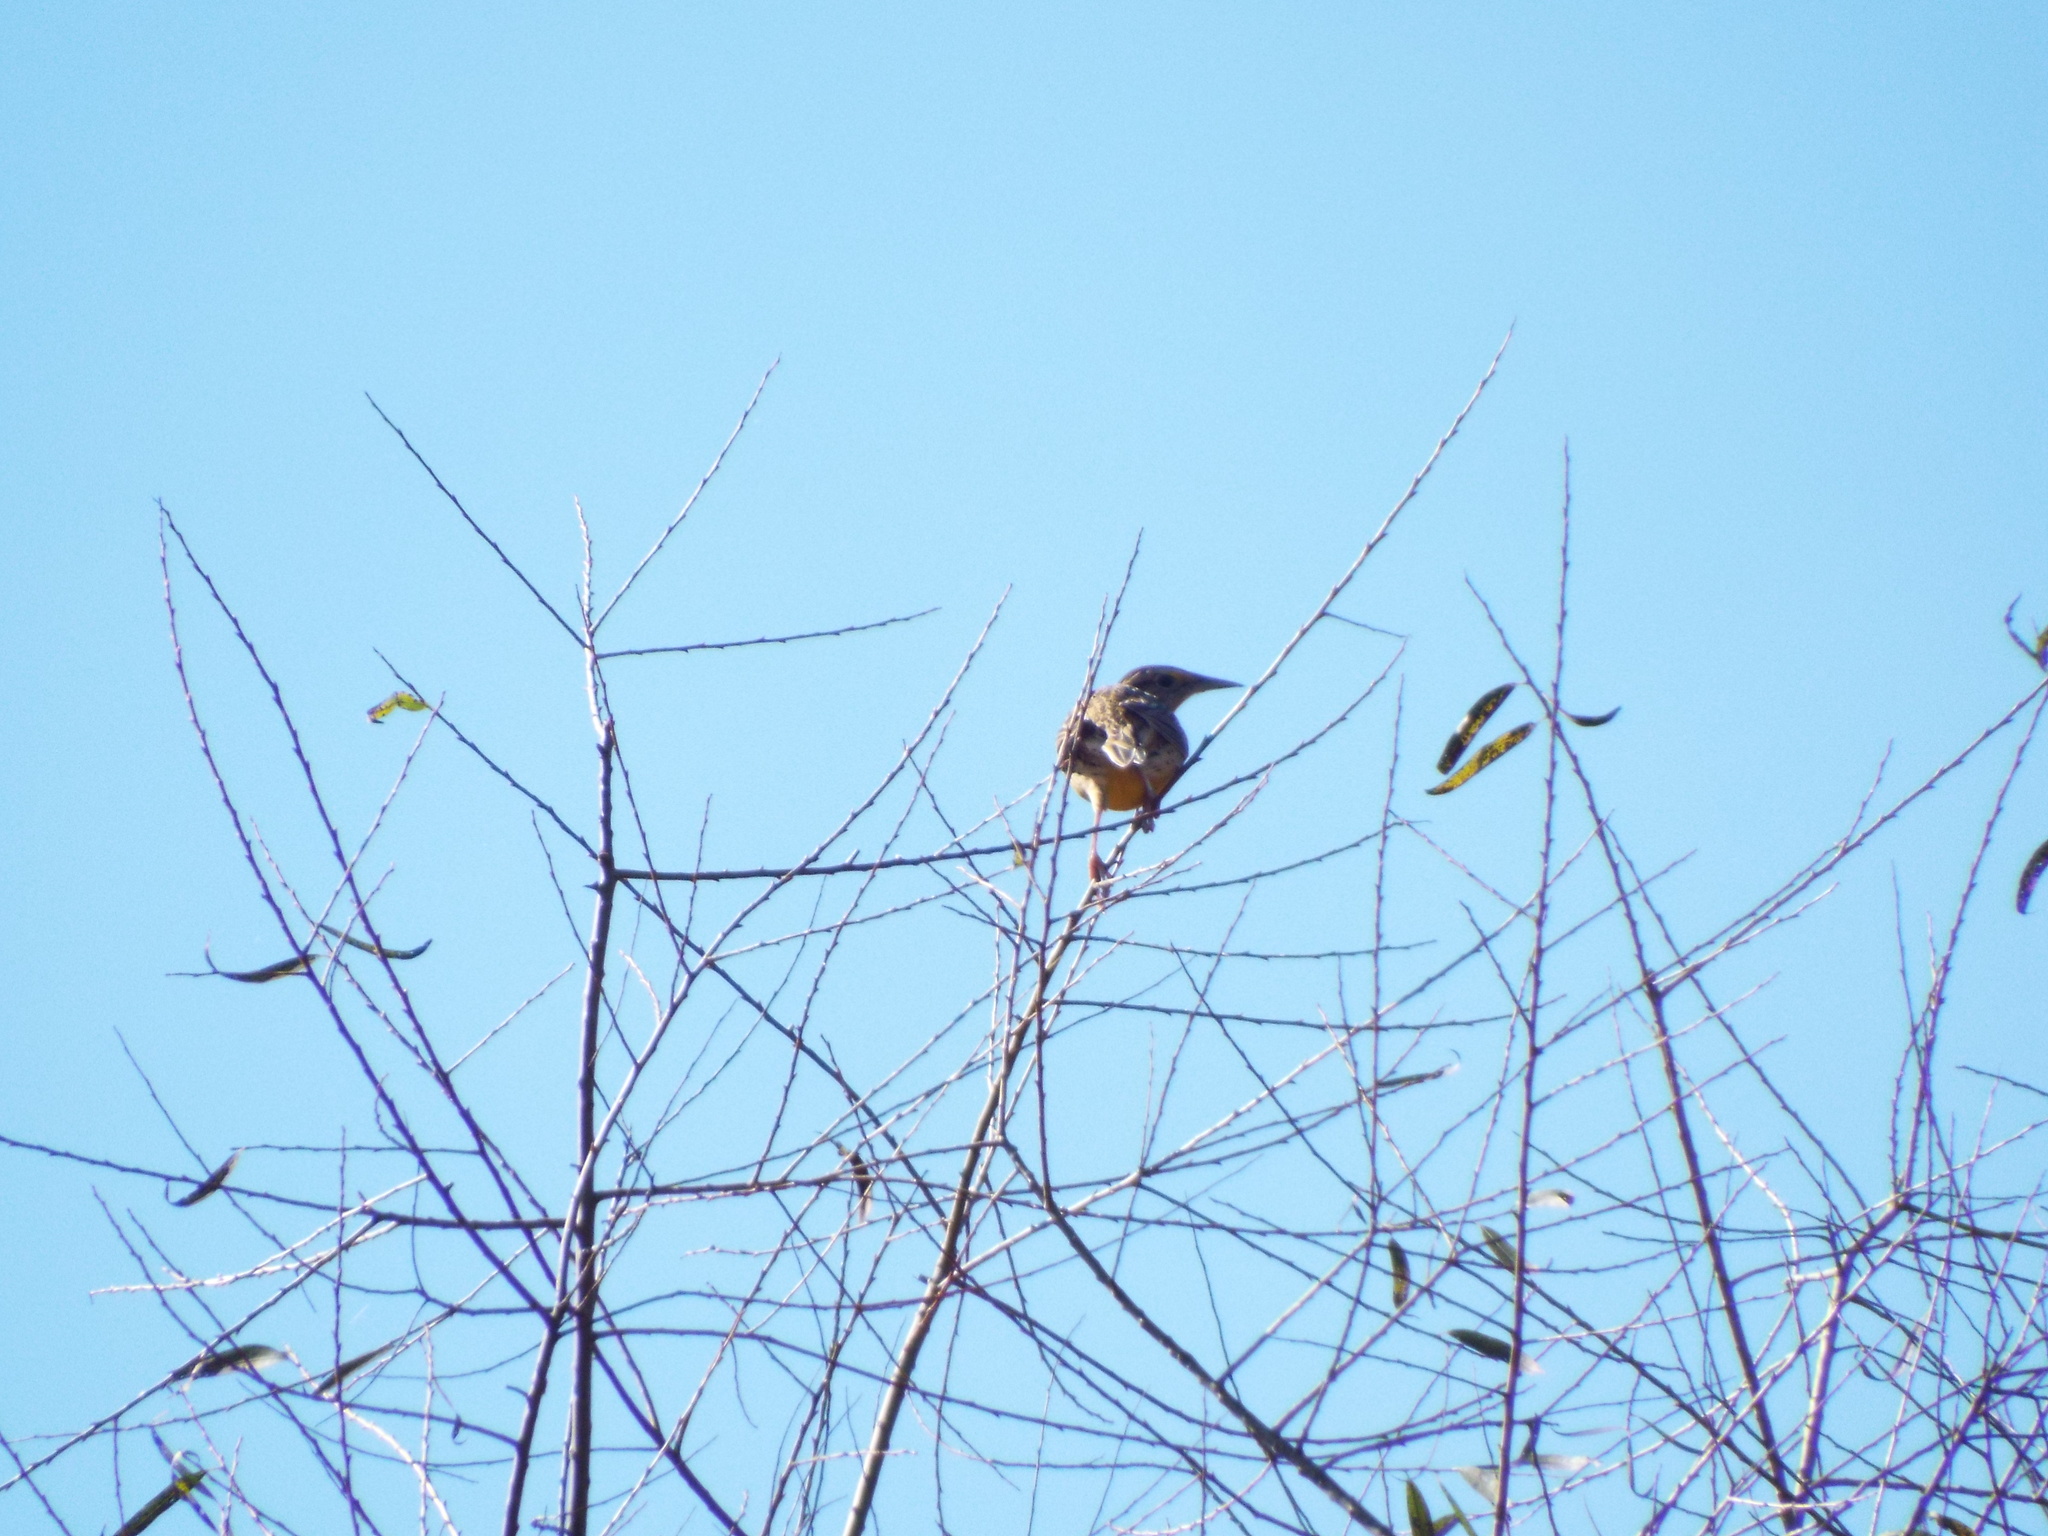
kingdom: Animalia
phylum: Chordata
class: Aves
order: Passeriformes
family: Icteridae
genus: Sturnella
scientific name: Sturnella magna
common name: Eastern meadowlark
